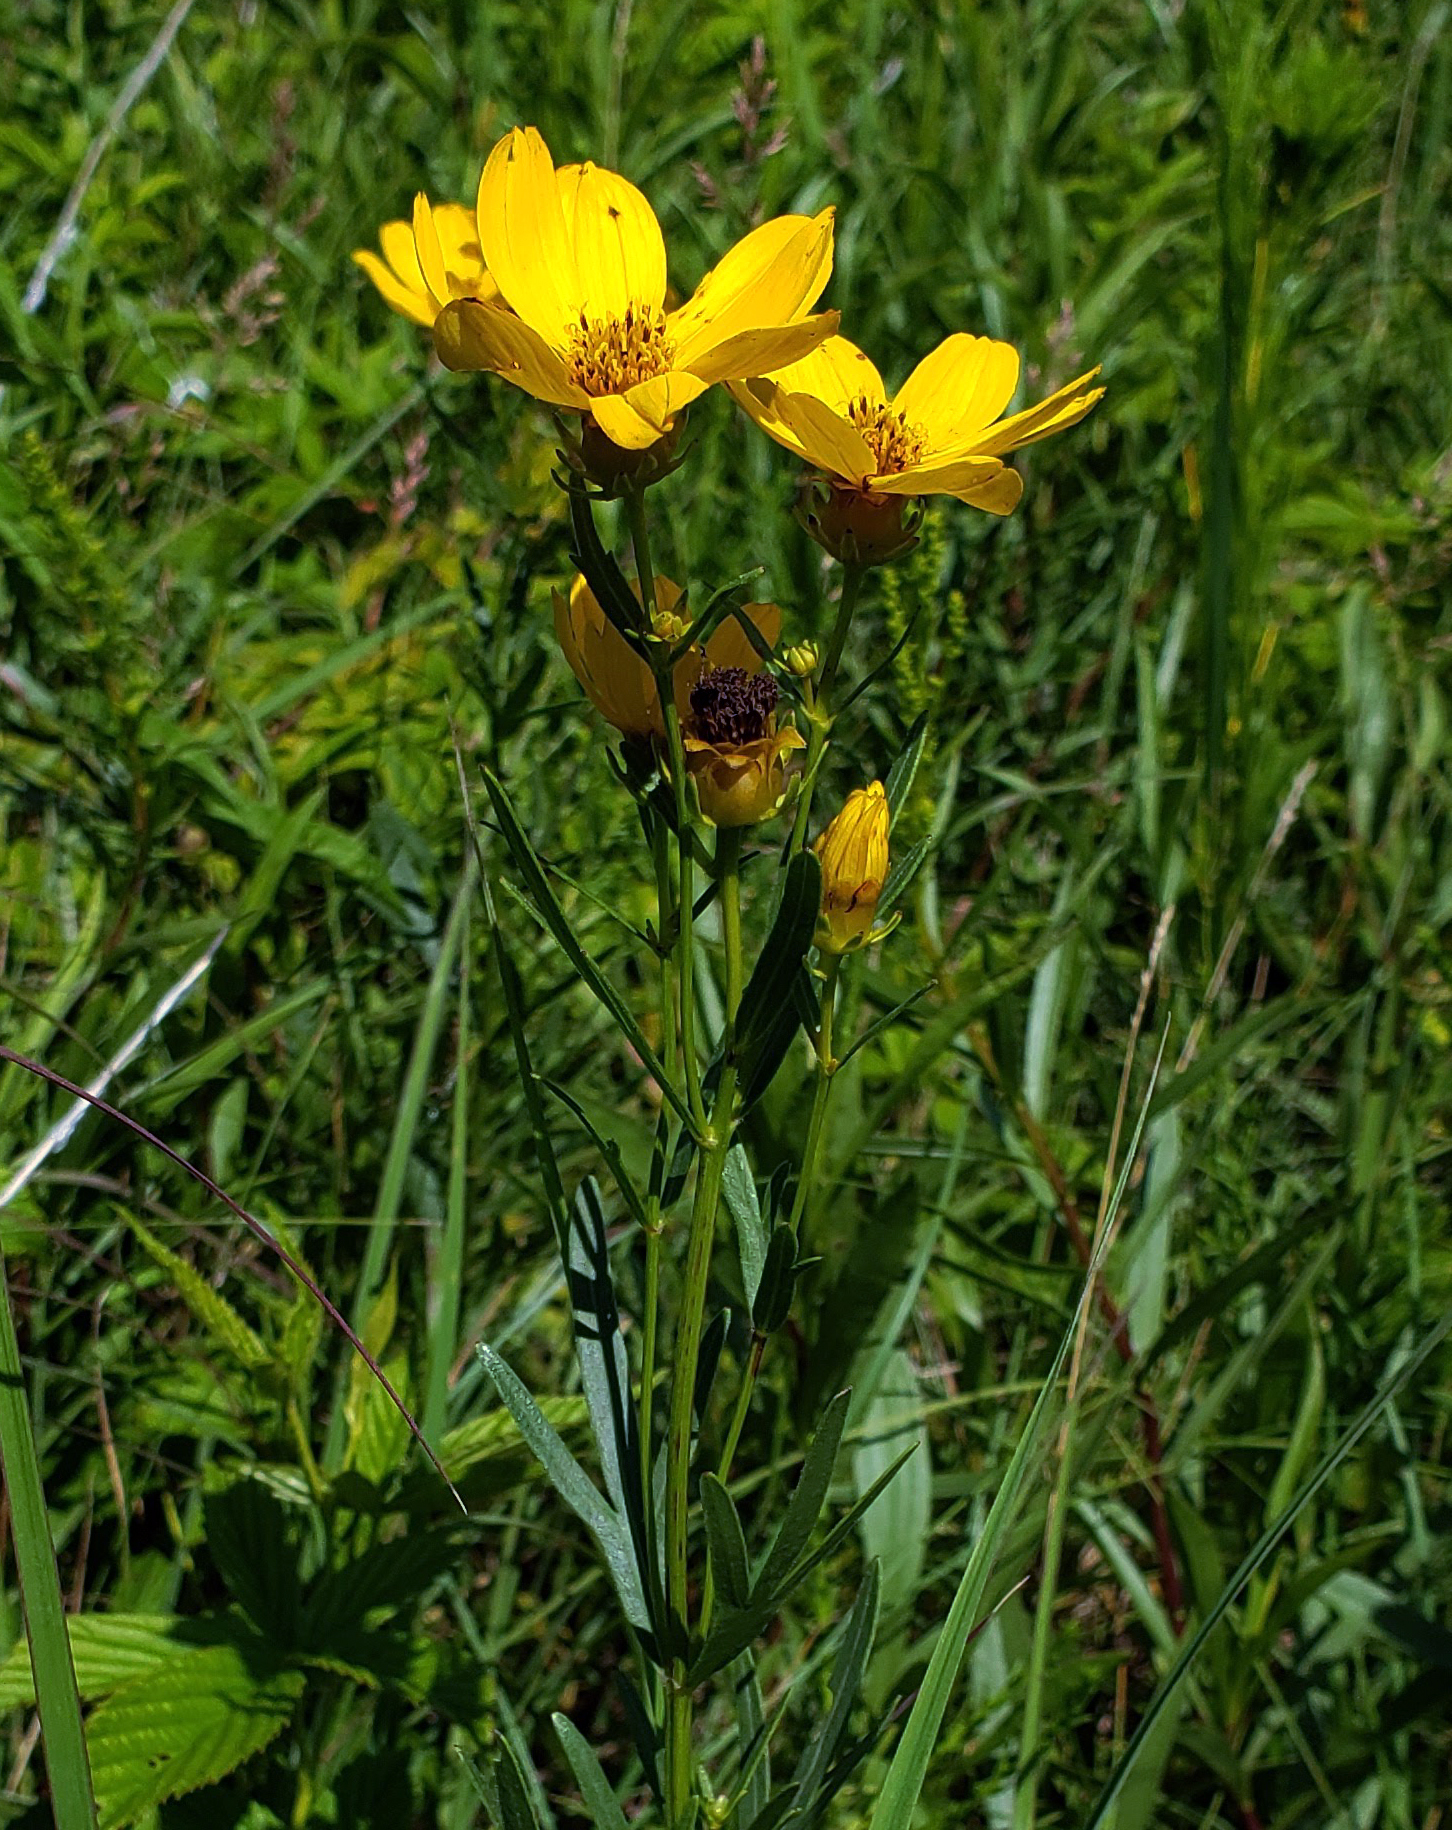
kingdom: Plantae
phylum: Tracheophyta
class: Magnoliopsida
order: Asterales
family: Asteraceae
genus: Coreopsis
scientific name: Coreopsis palmata
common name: Prairie coreopsis
